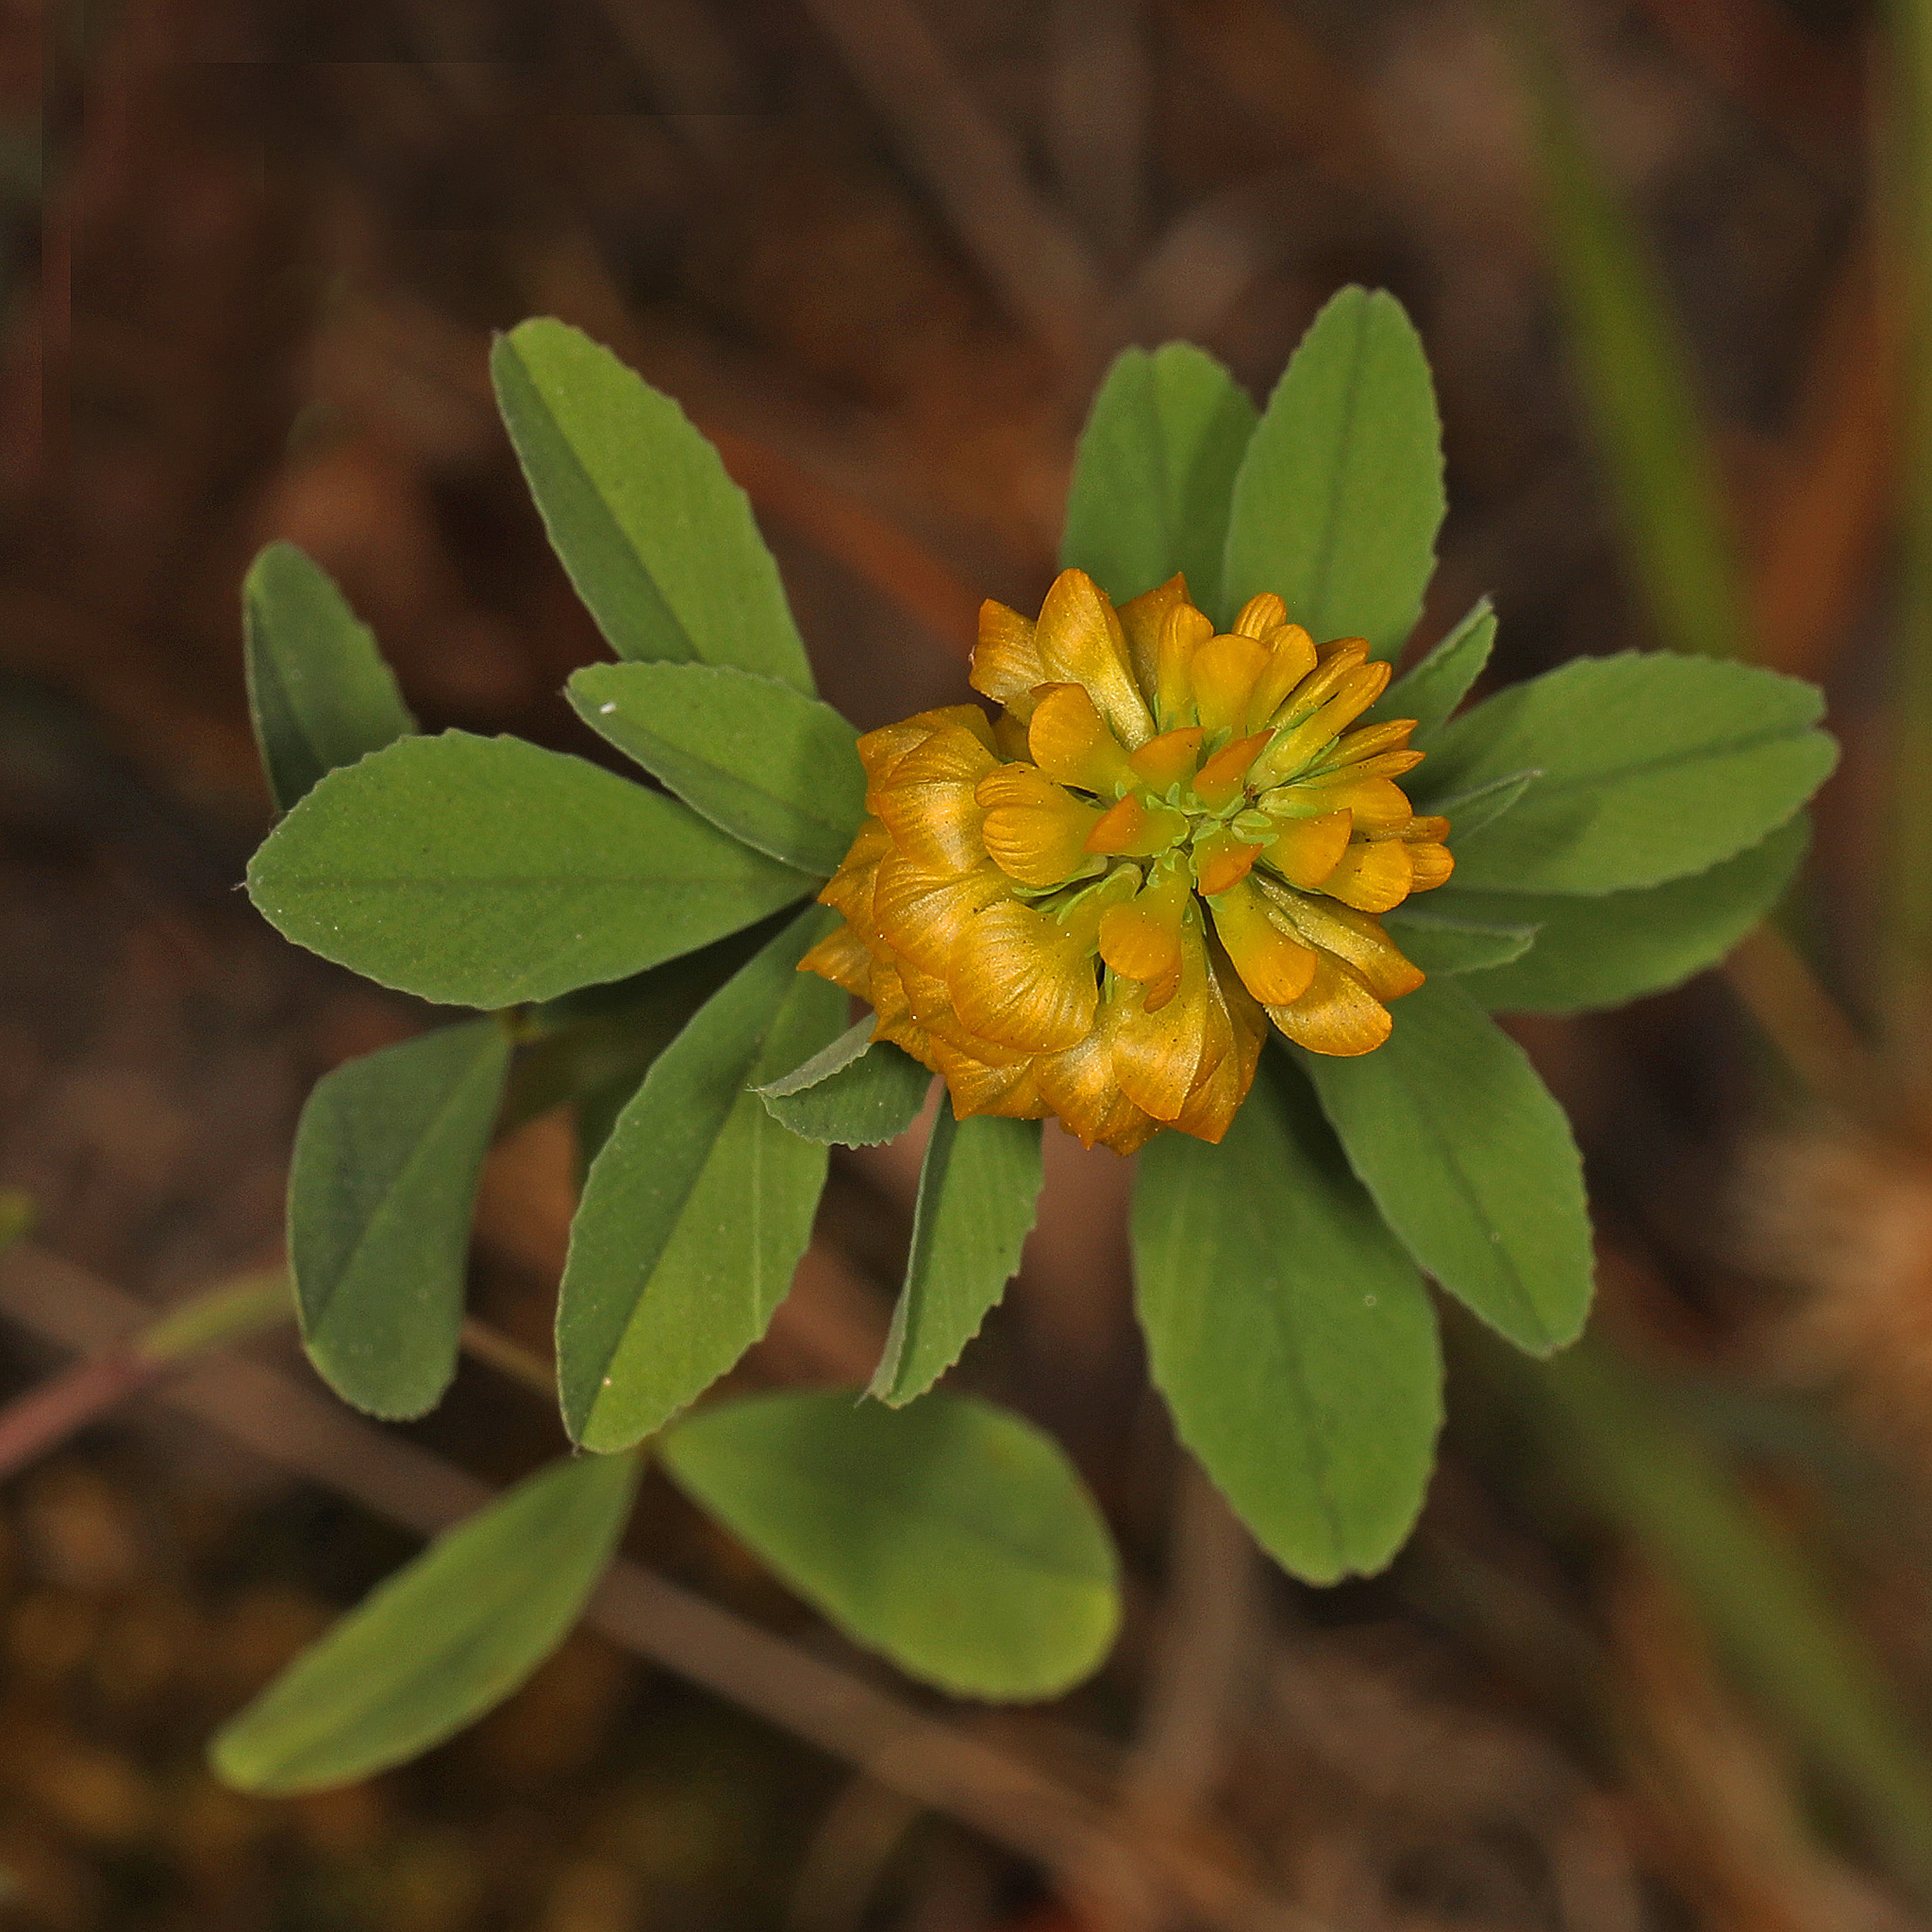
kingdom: Plantae
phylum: Tracheophyta
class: Magnoliopsida
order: Fabales
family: Fabaceae
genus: Trifolium
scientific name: Trifolium aureum
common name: Golden clover
